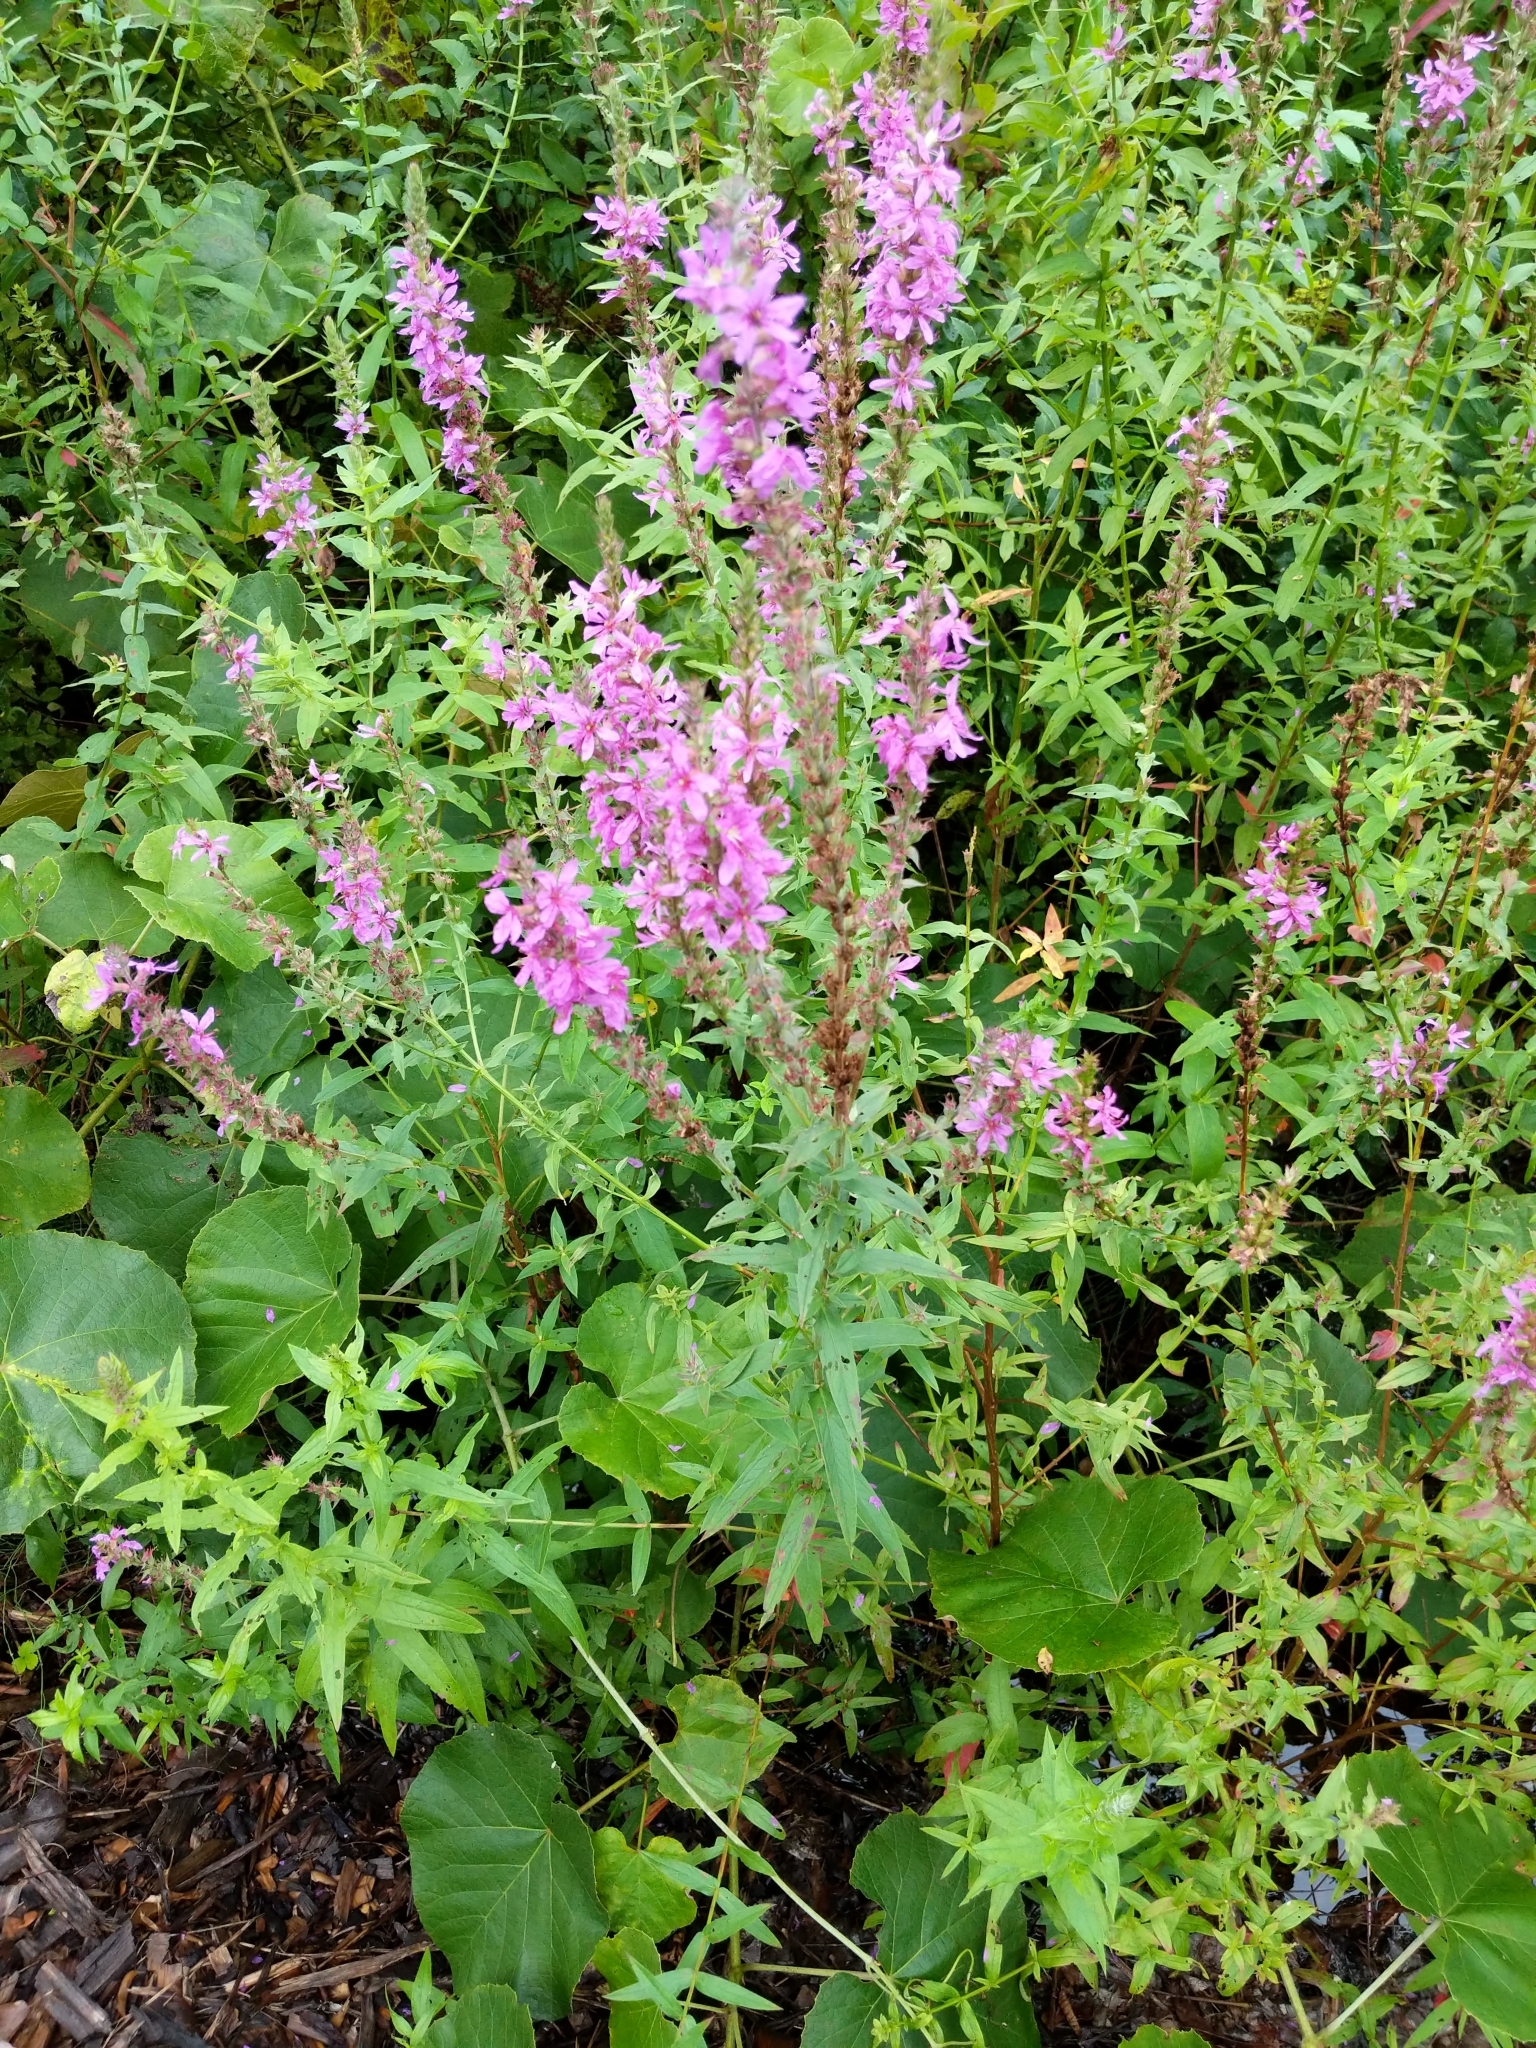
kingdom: Plantae
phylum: Tracheophyta
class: Magnoliopsida
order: Myrtales
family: Lythraceae
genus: Lythrum
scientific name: Lythrum salicaria
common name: Purple loosestrife
